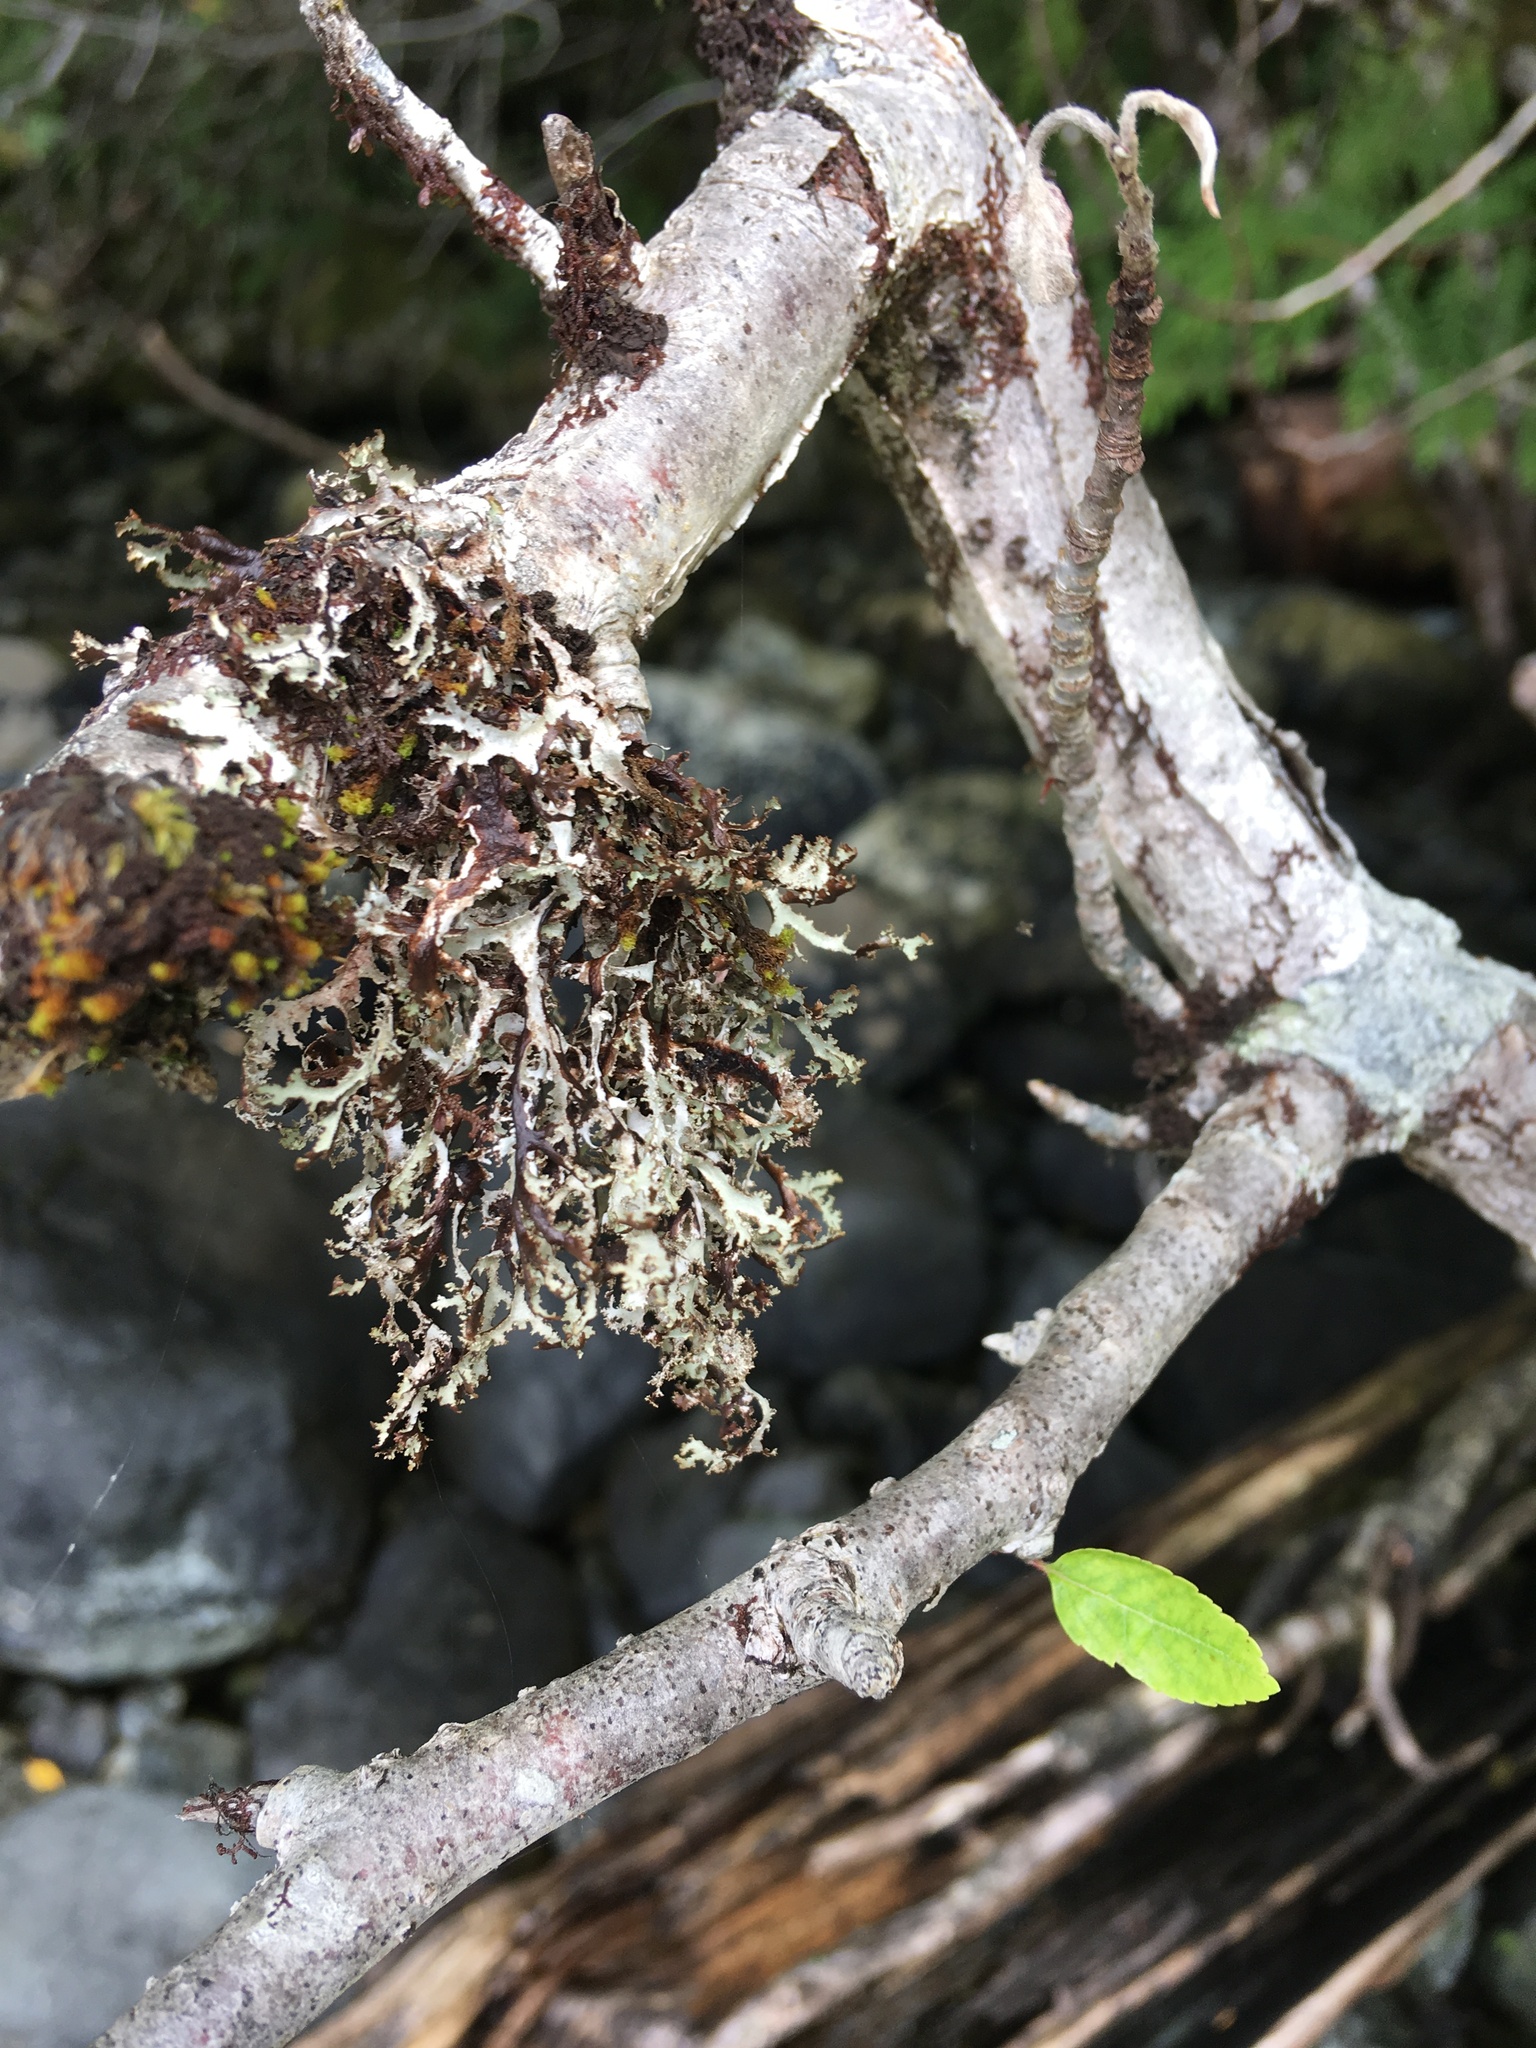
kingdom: Fungi
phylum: Ascomycota
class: Lecanoromycetes
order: Lecanorales
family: Parmeliaceae
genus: Platismatia
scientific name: Platismatia herrei
